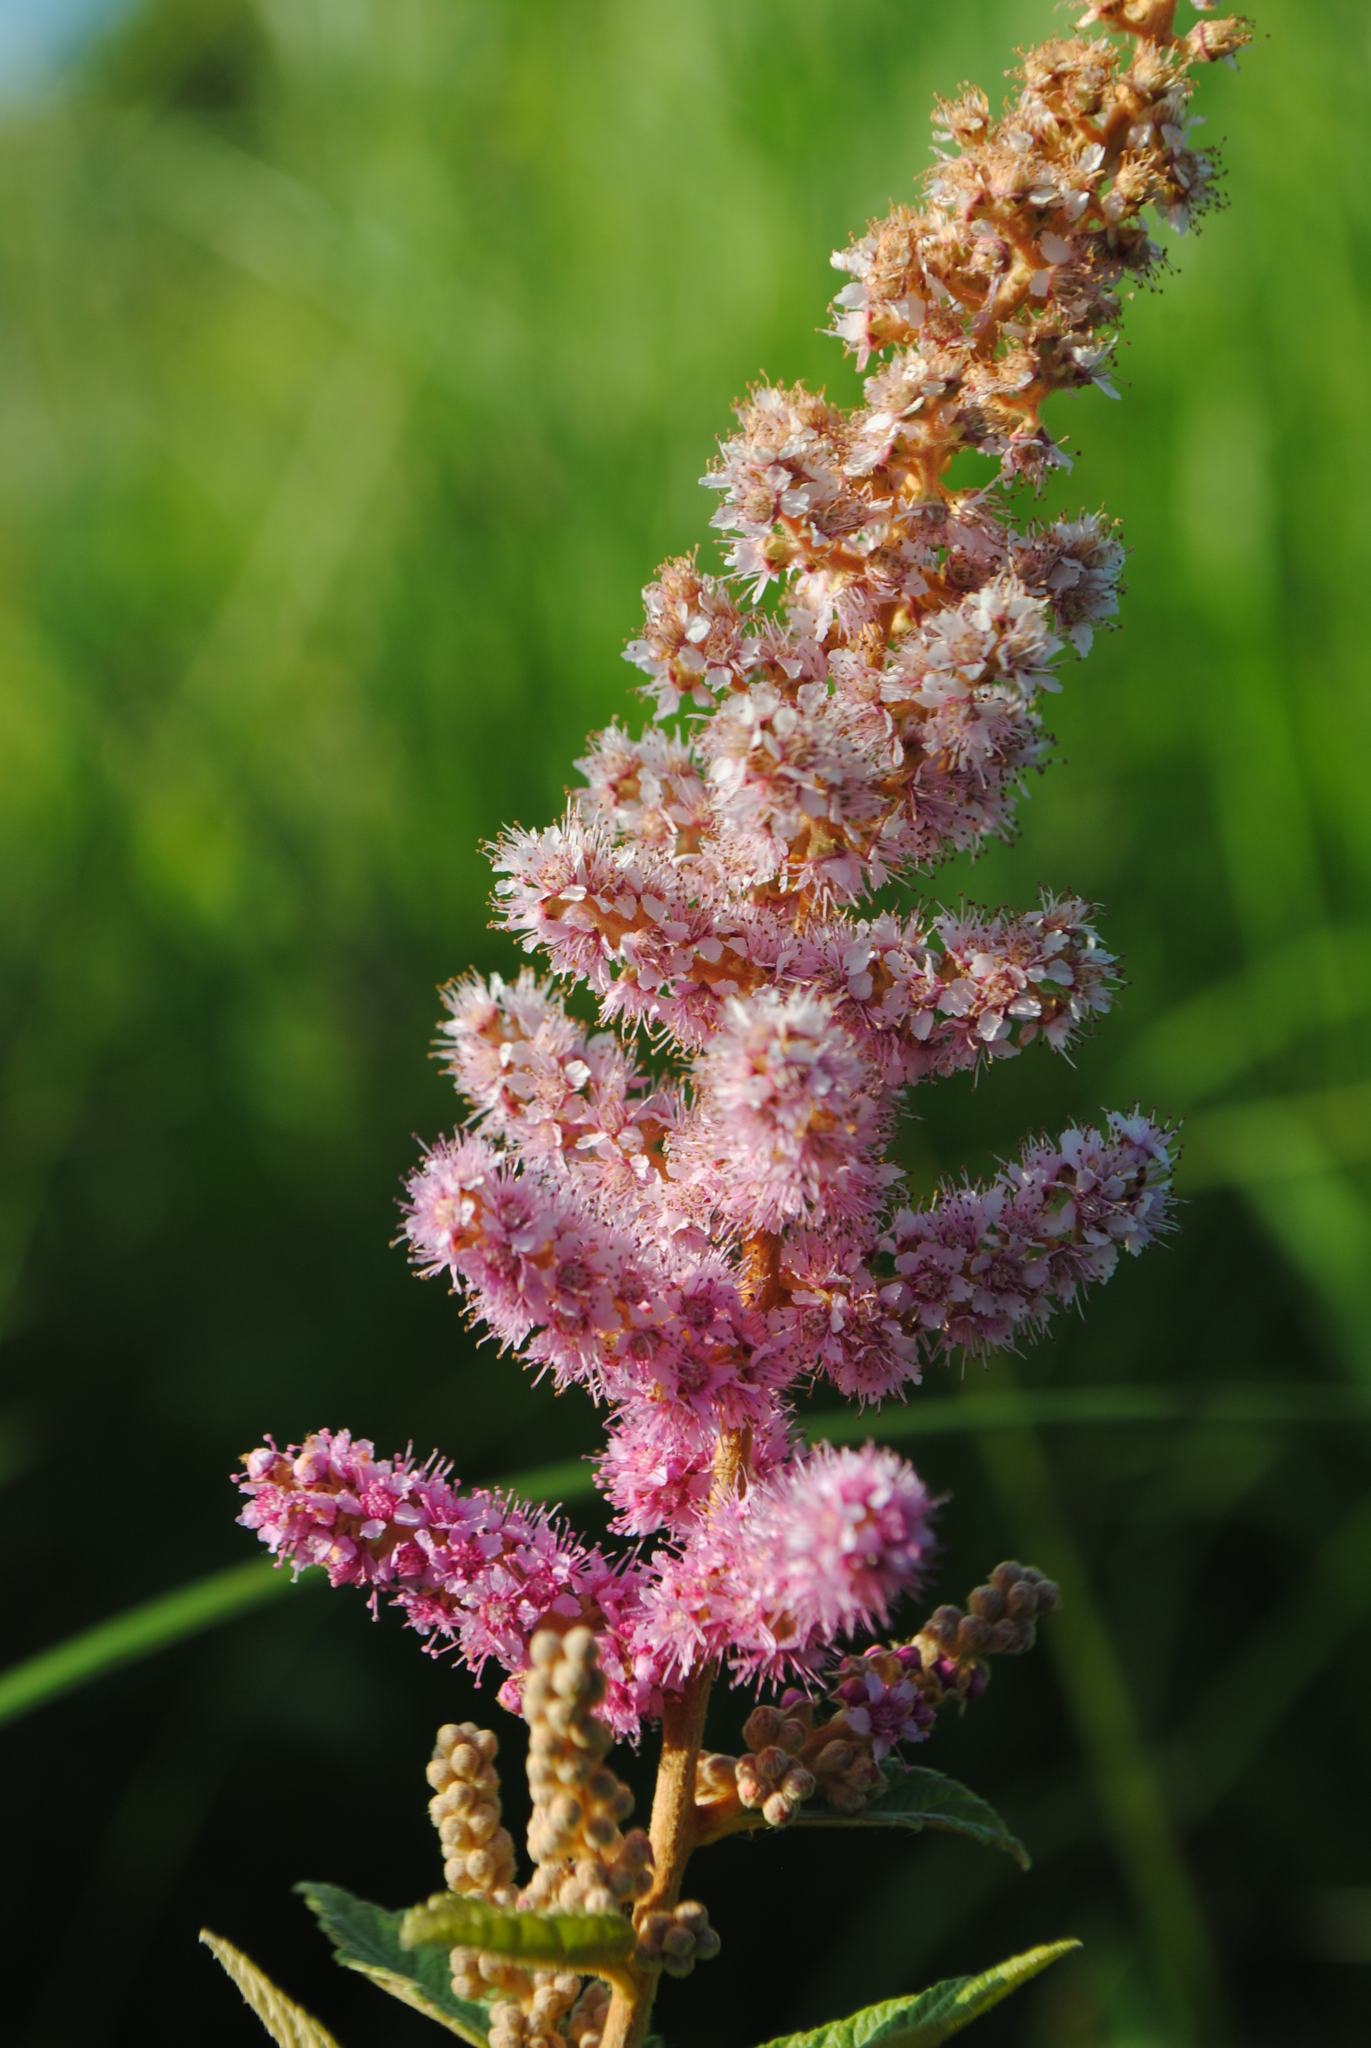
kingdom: Plantae
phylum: Tracheophyta
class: Magnoliopsida
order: Rosales
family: Rosaceae
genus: Spiraea
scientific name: Spiraea tomentosa
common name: Hardhack
